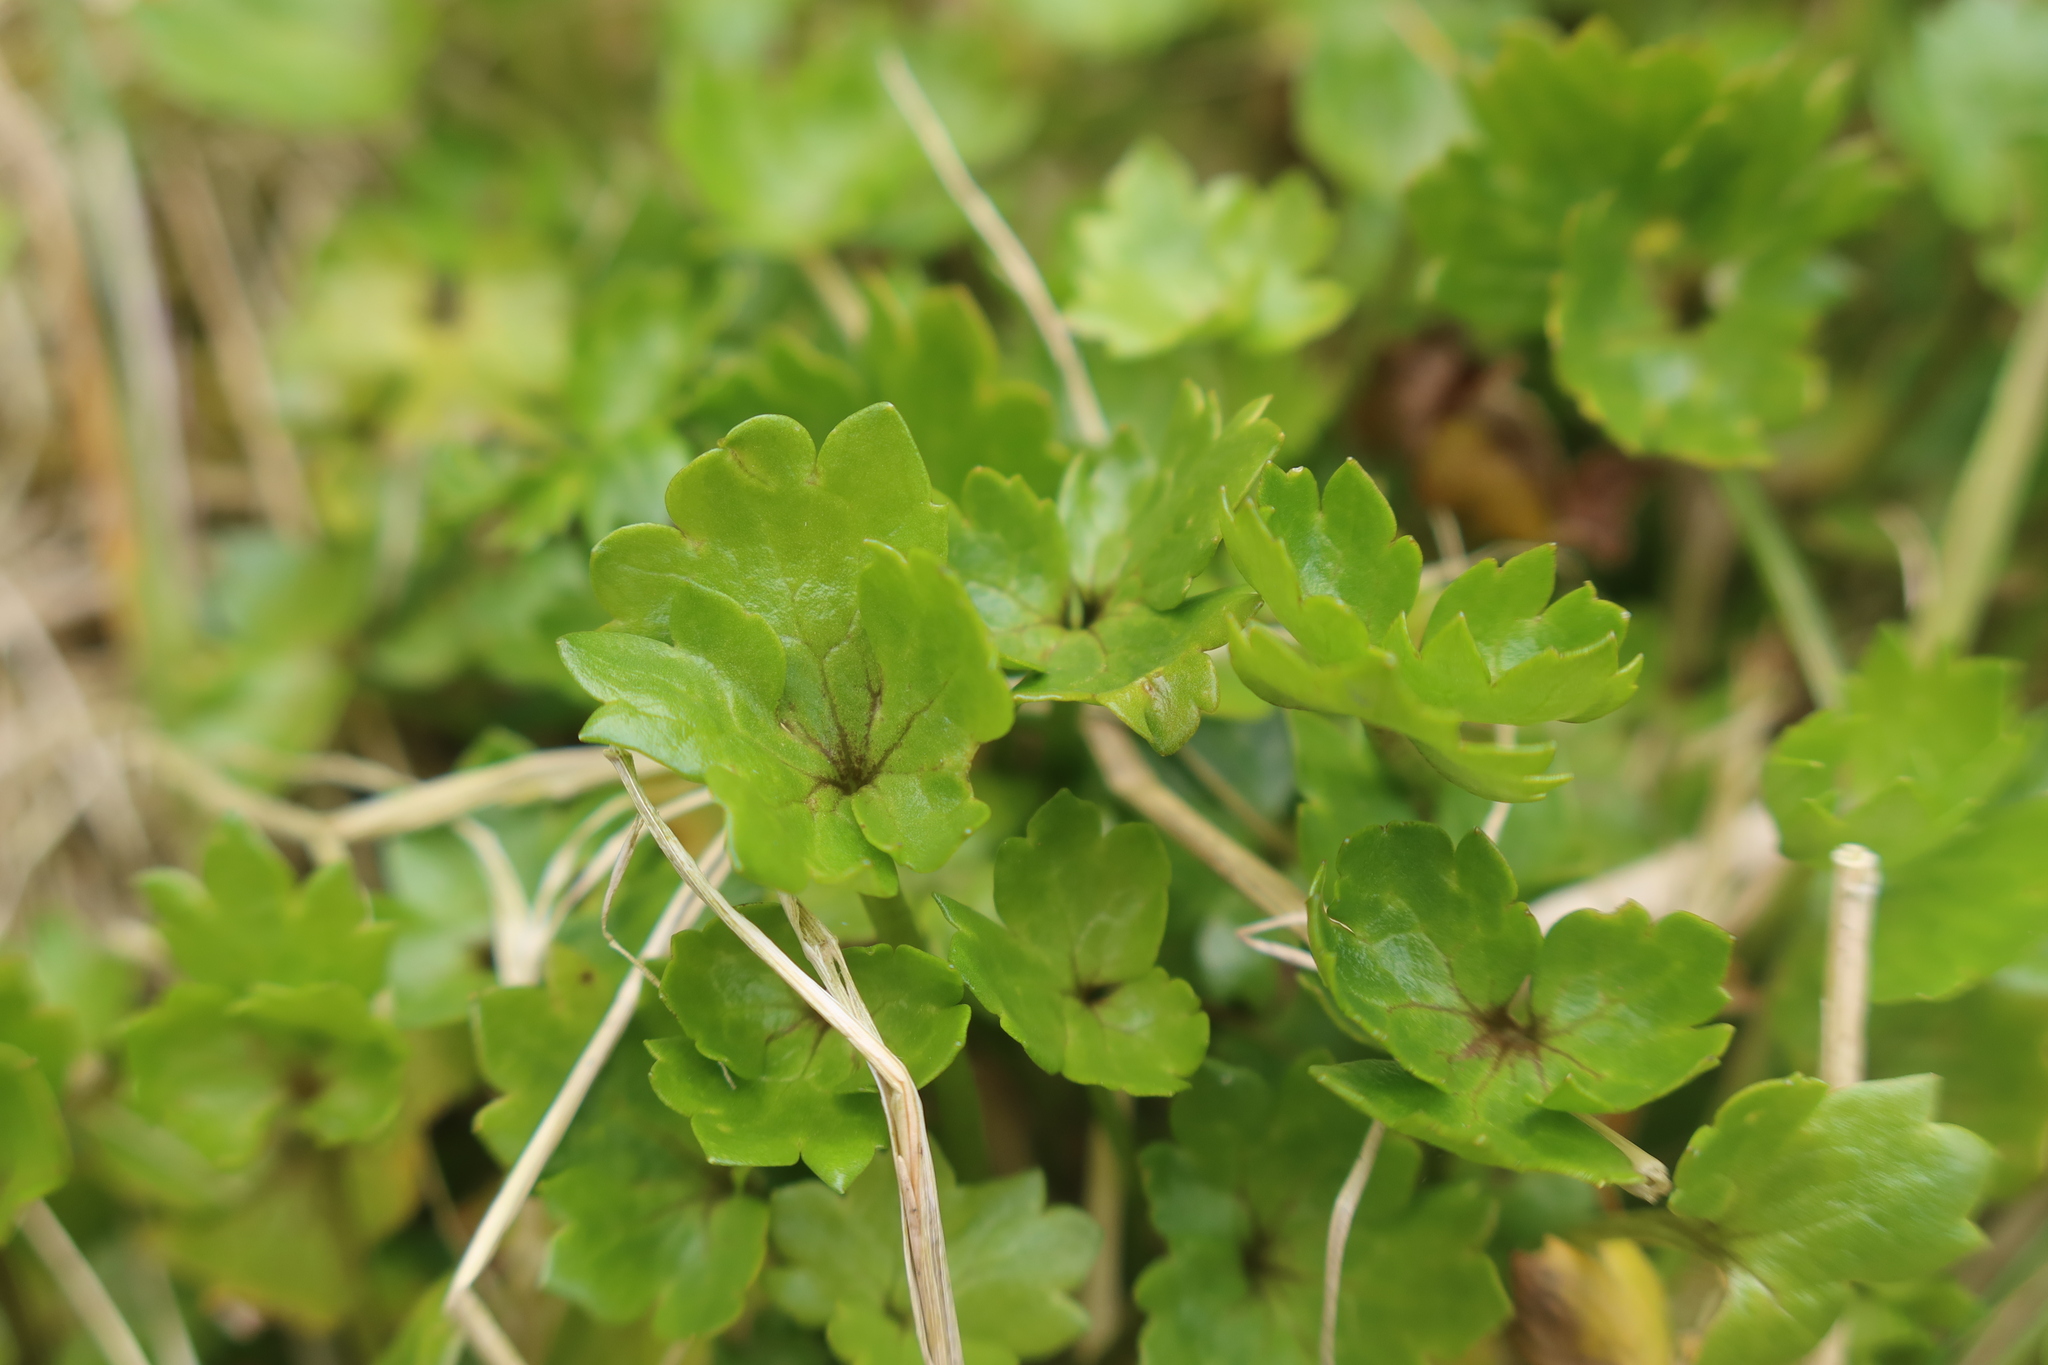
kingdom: Plantae
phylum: Tracheophyta
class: Magnoliopsida
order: Ranunculales
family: Ranunculaceae
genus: Ranunculus
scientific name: Ranunculus crassipes
